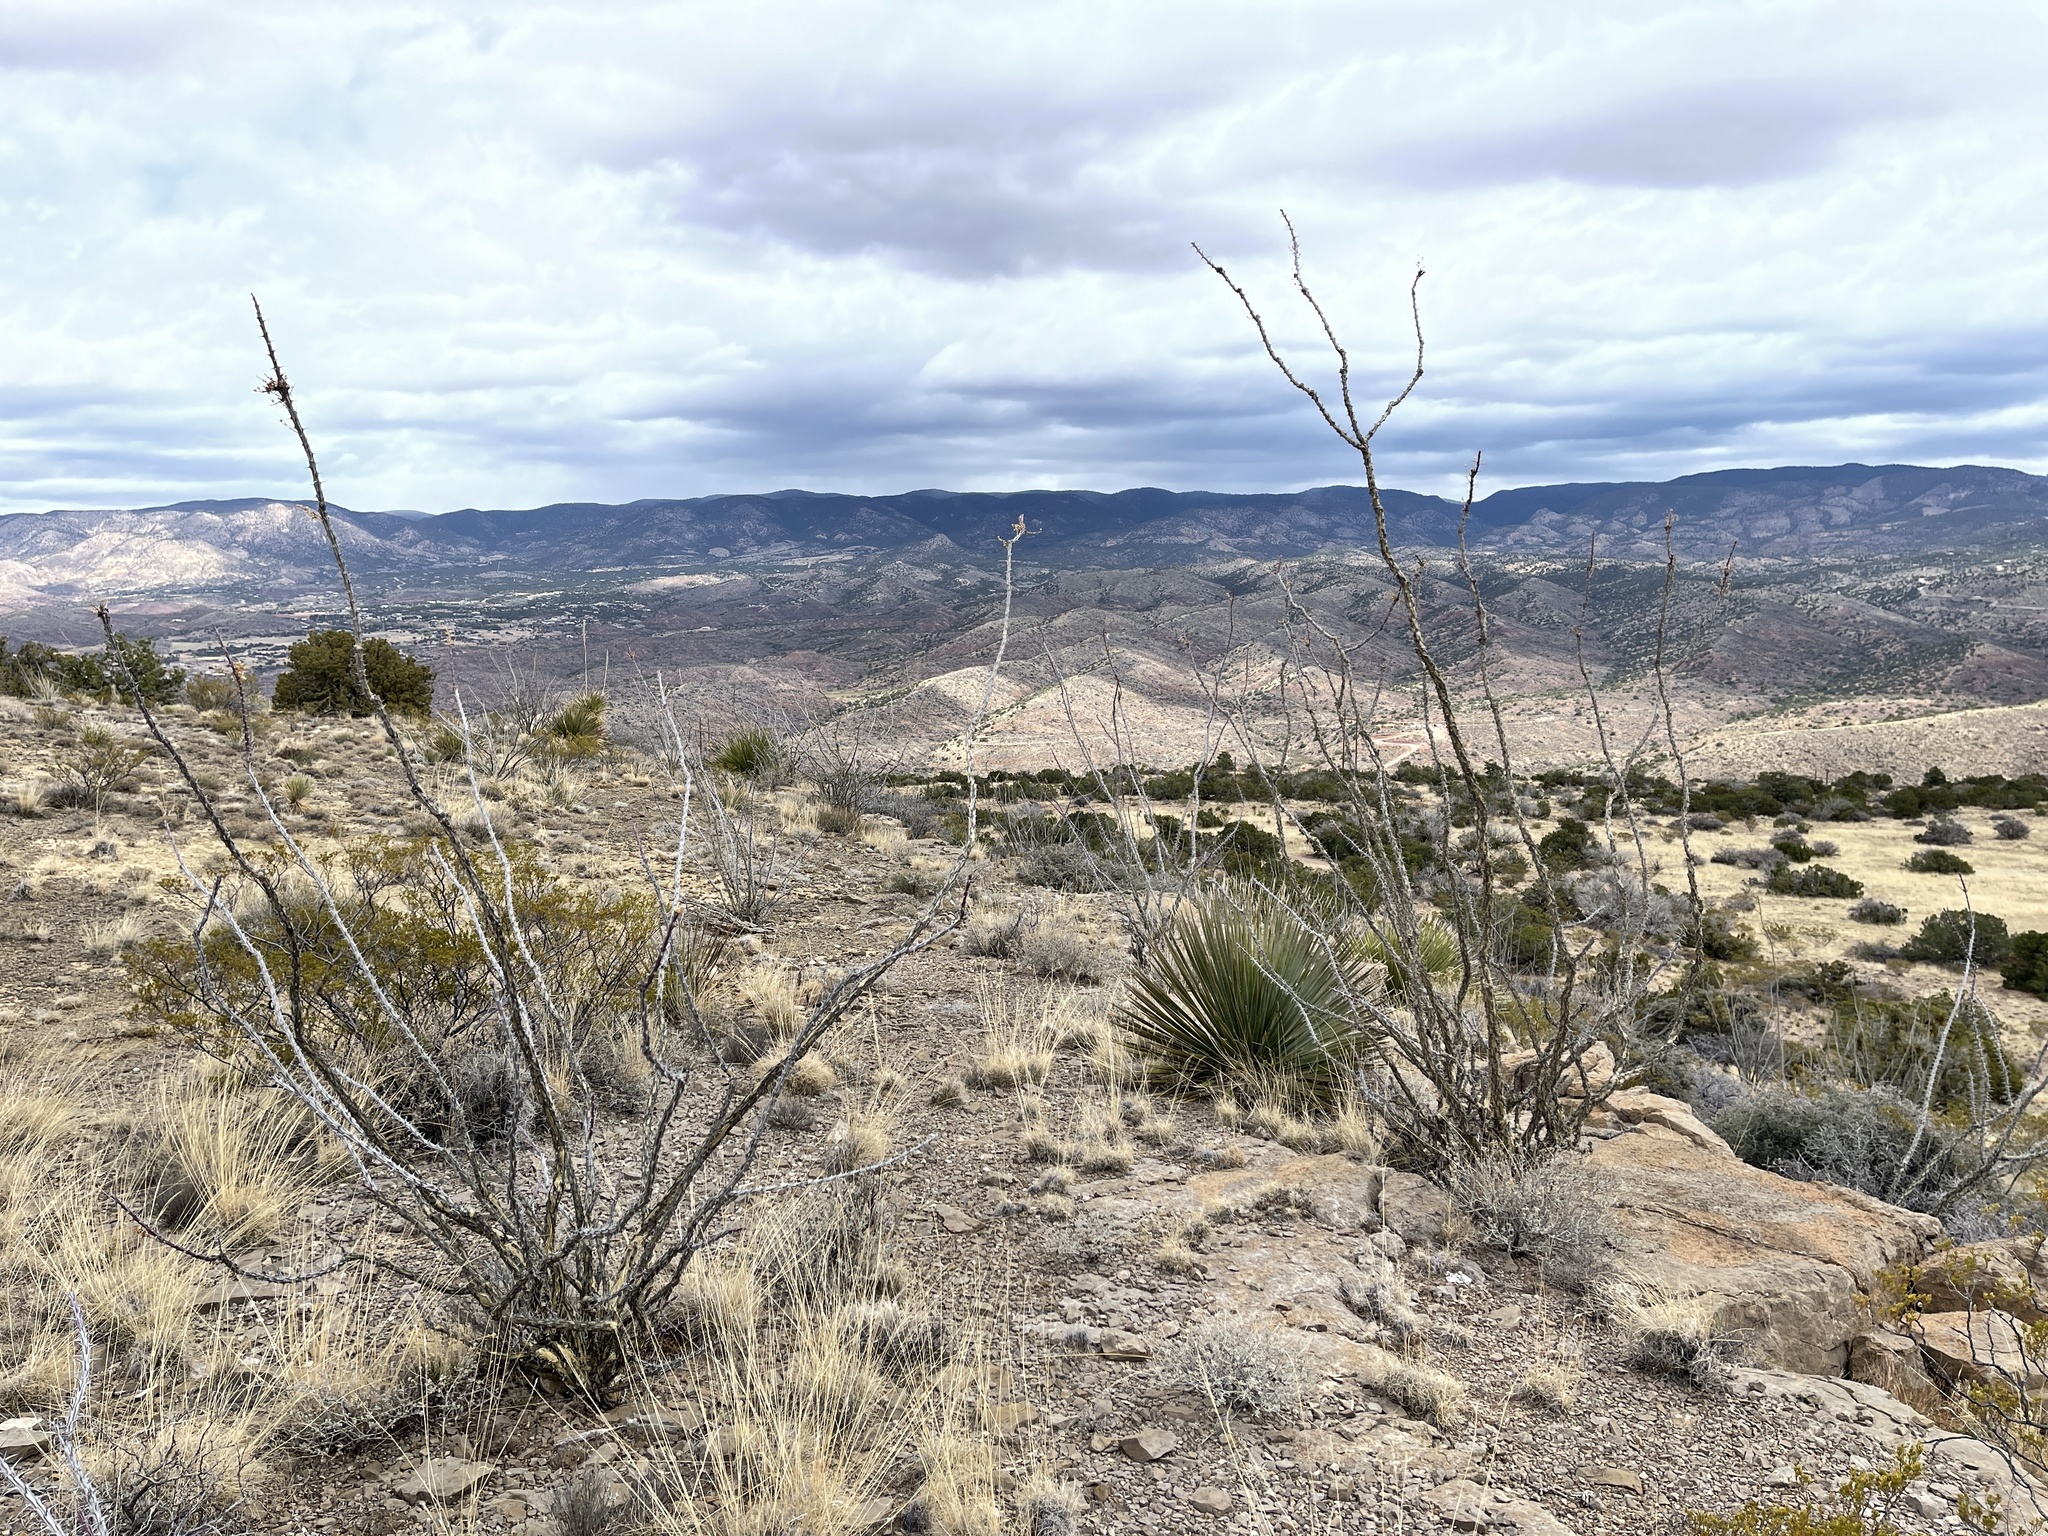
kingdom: Plantae
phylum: Tracheophyta
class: Magnoliopsida
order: Ericales
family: Fouquieriaceae
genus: Fouquieria
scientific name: Fouquieria splendens
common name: Vine-cactus
